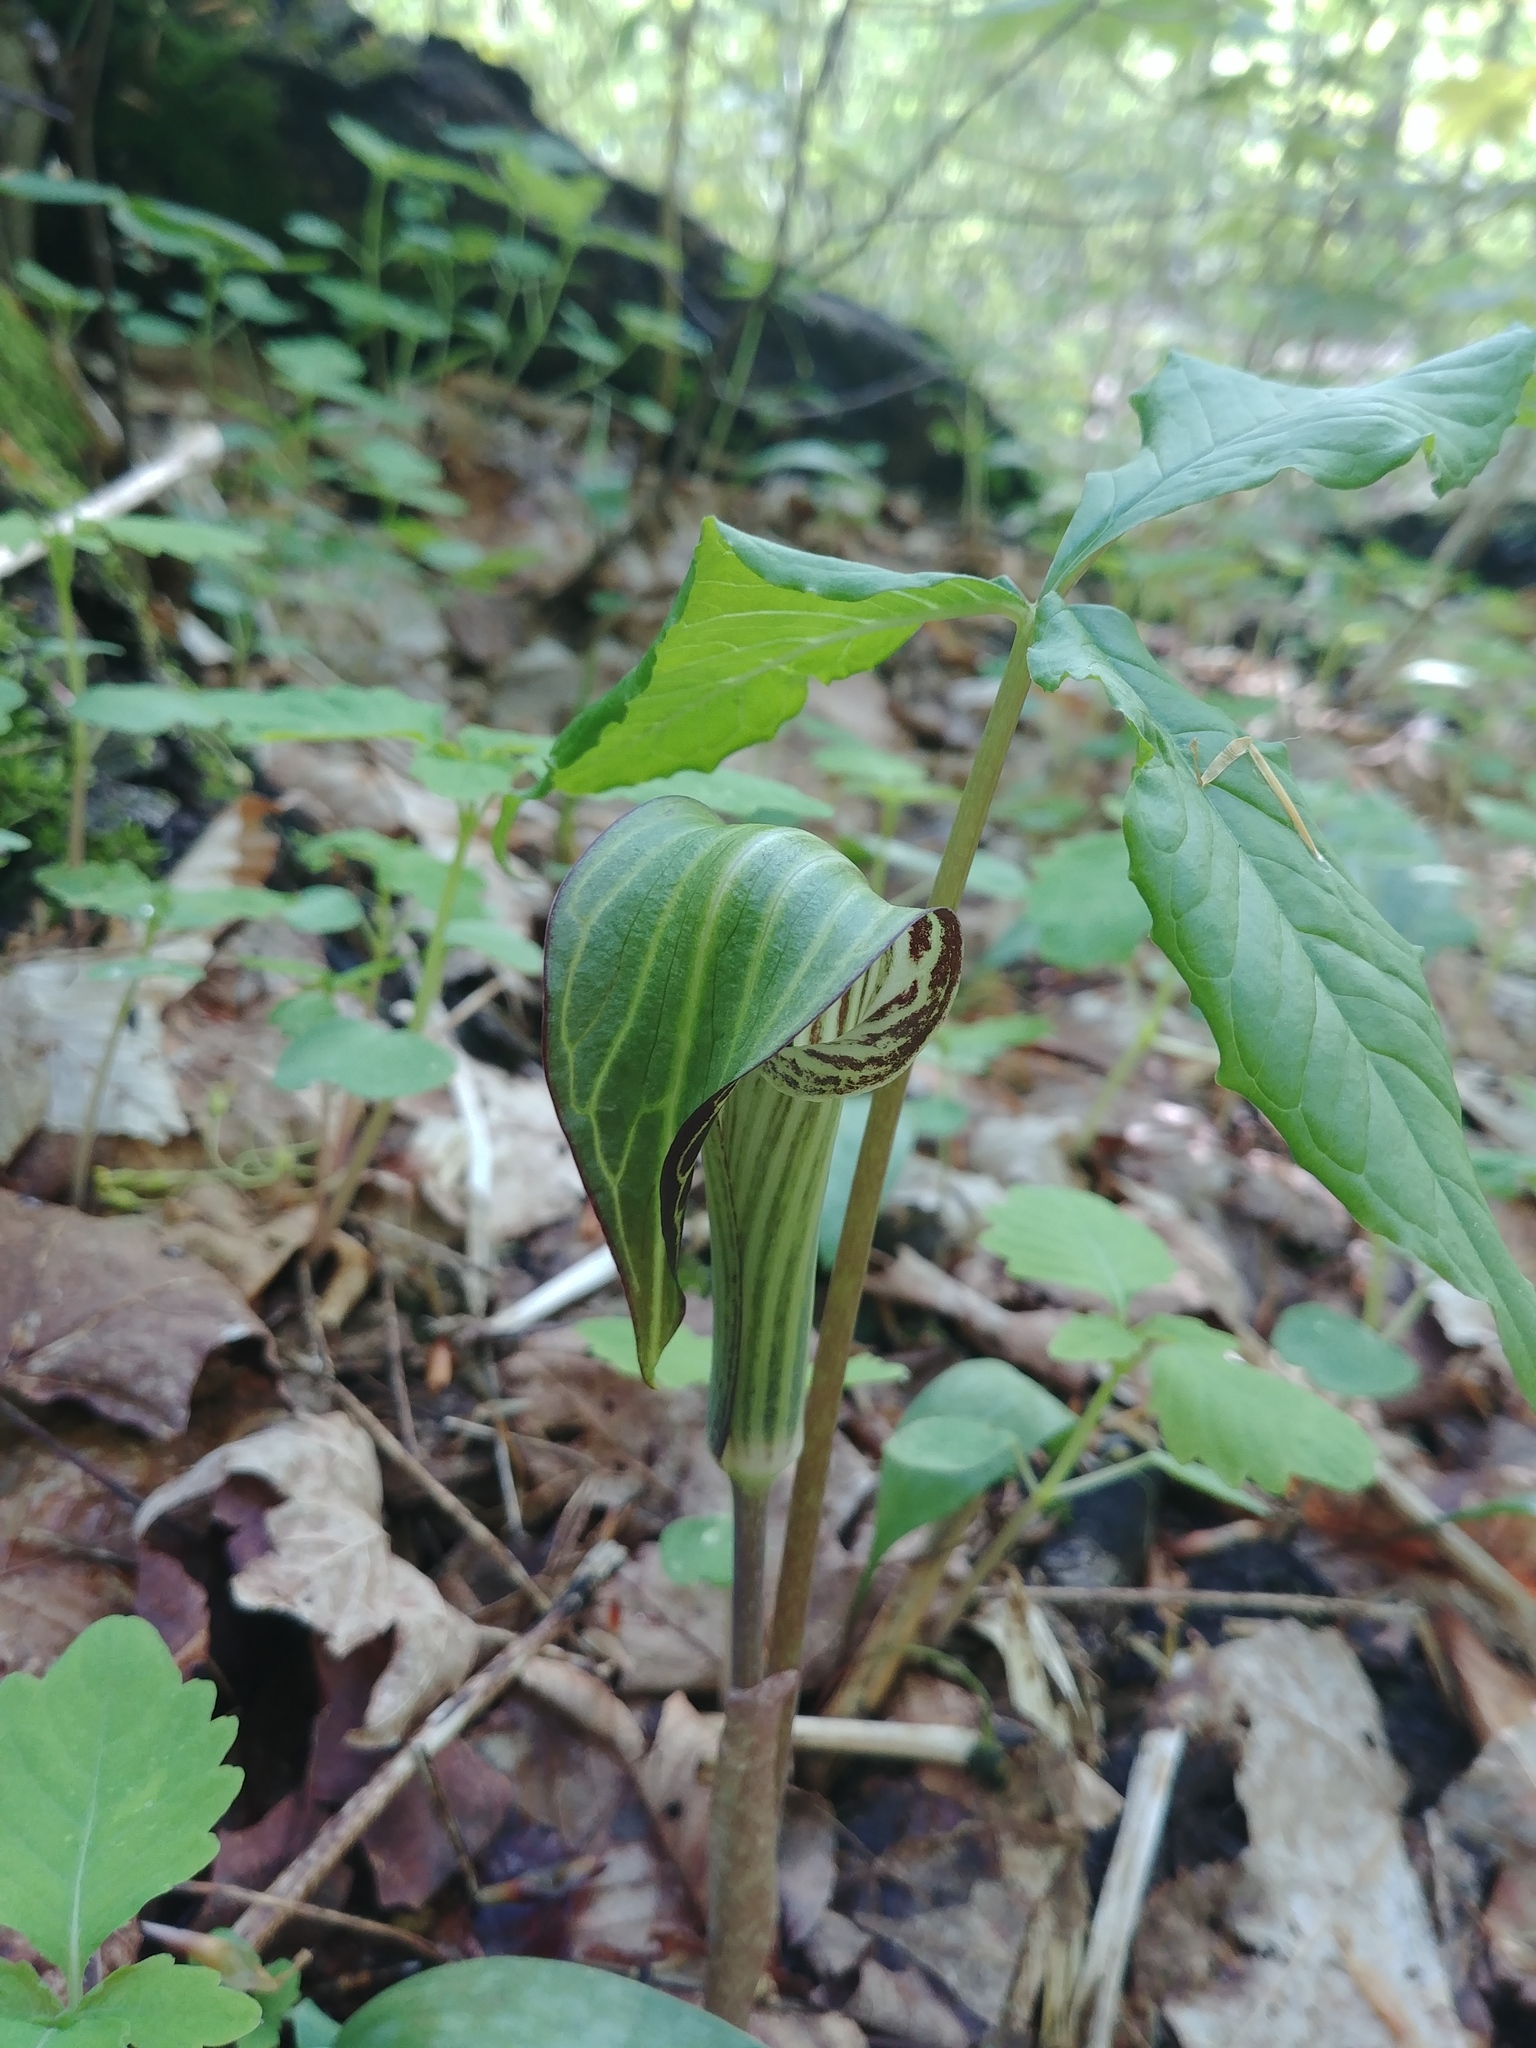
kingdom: Plantae
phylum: Tracheophyta
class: Liliopsida
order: Alismatales
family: Araceae
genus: Arisaema
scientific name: Arisaema triphyllum
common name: Jack-in-the-pulpit
